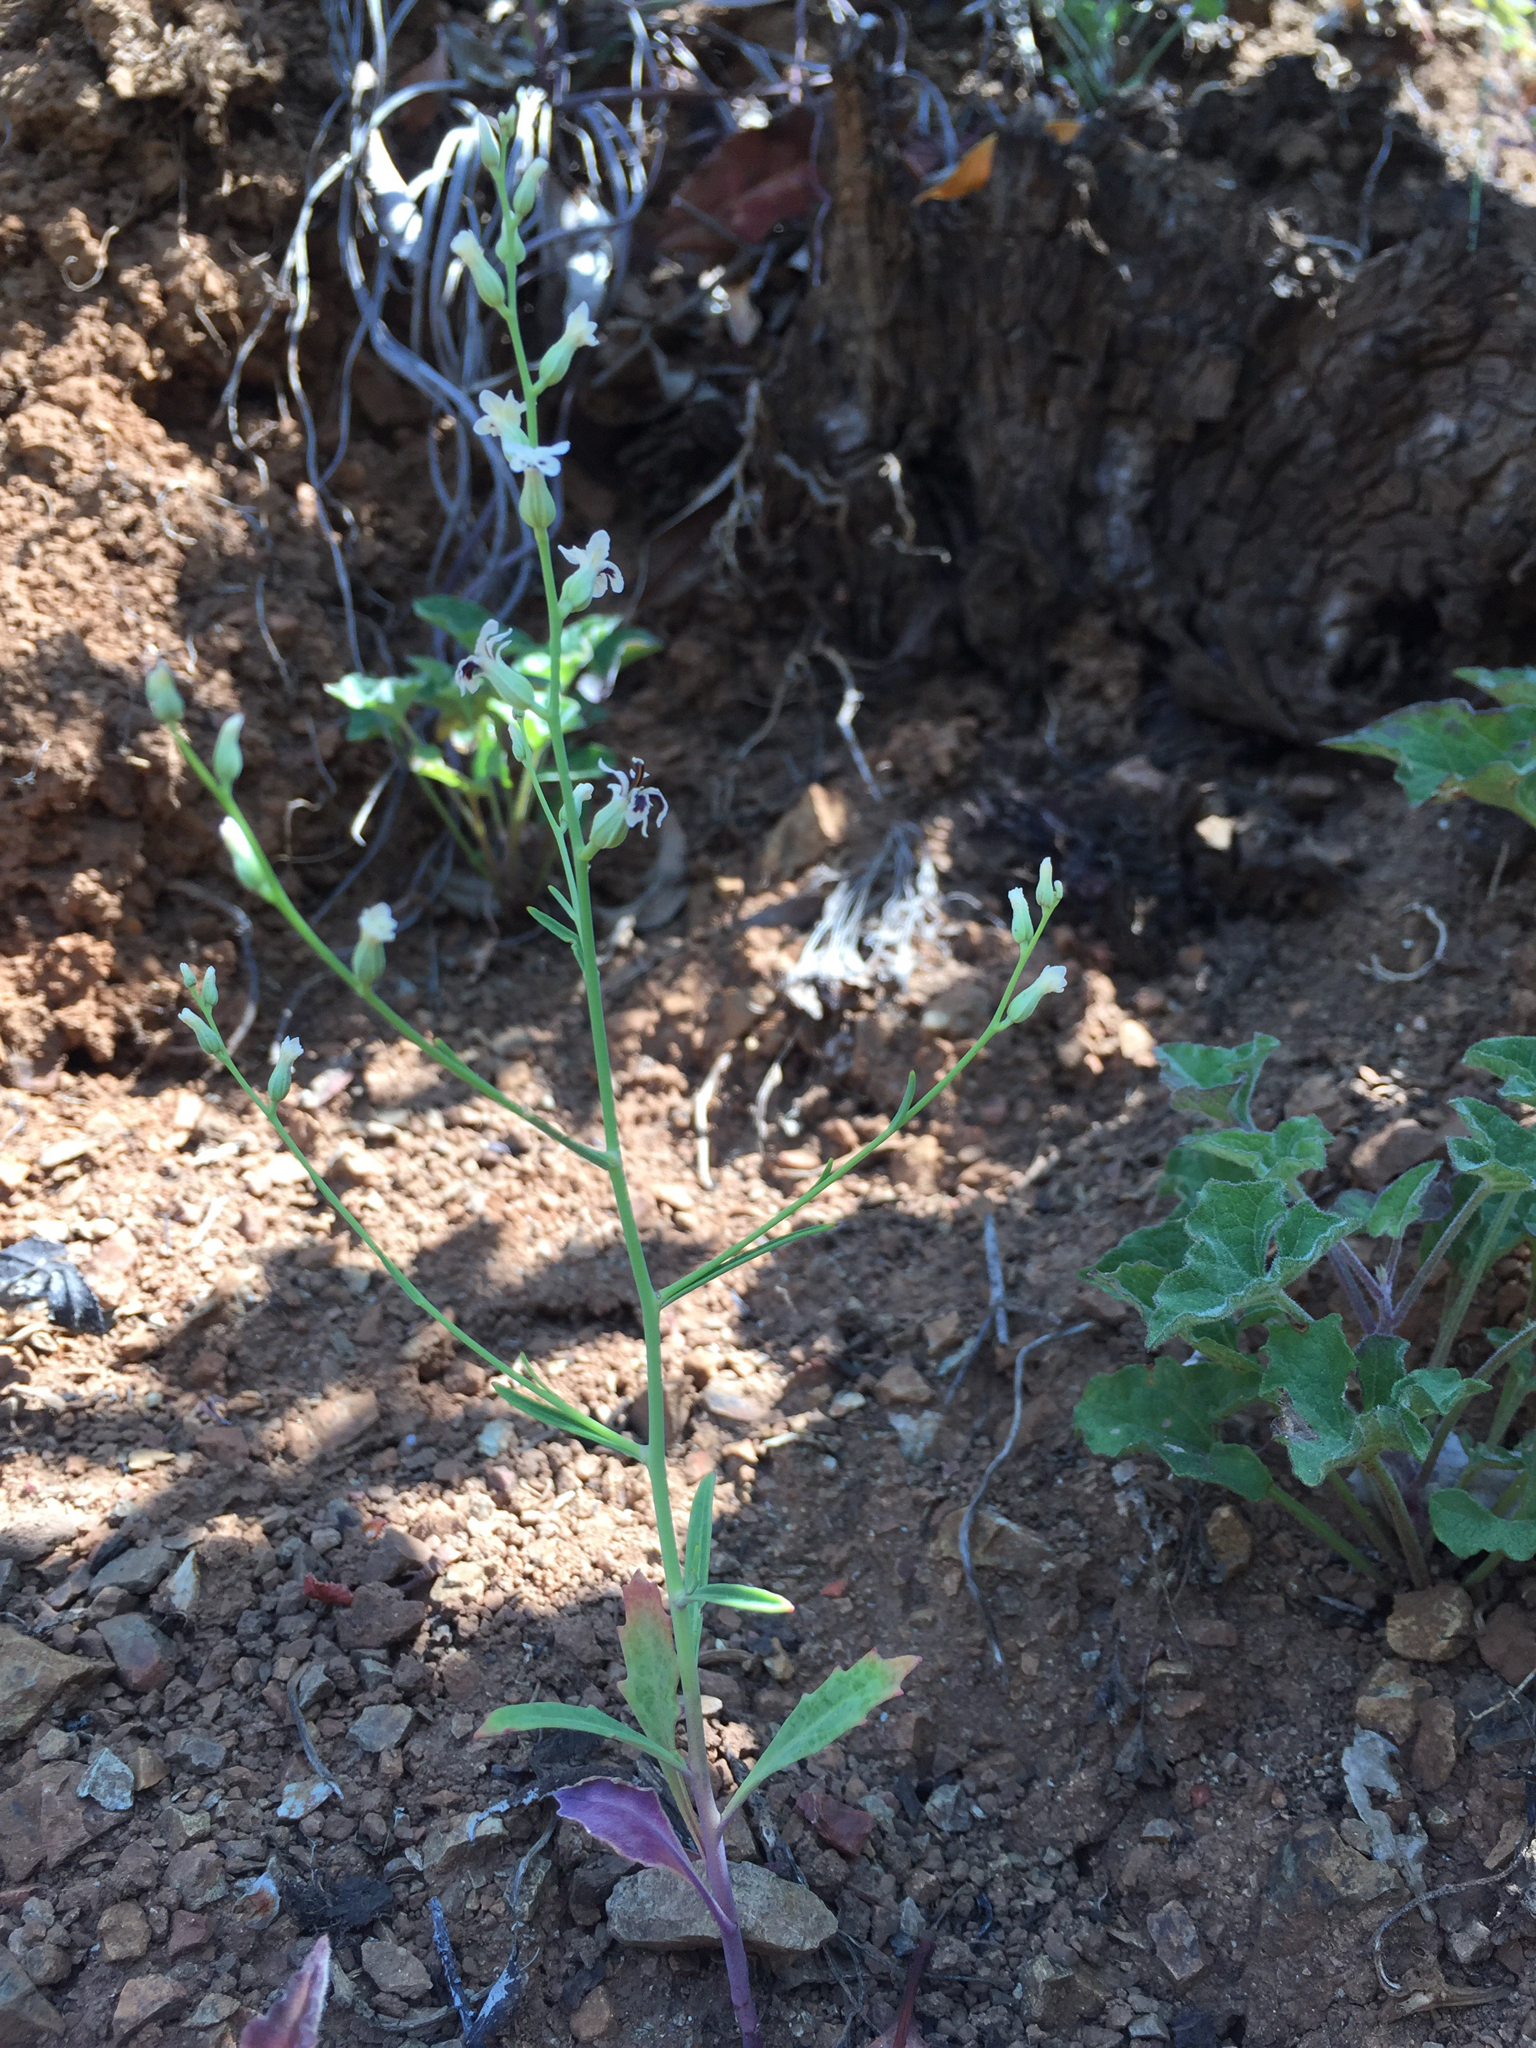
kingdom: Plantae
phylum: Tracheophyta
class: Magnoliopsida
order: Brassicales
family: Brassicaceae
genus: Streptanthus
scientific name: Streptanthus barbiger
